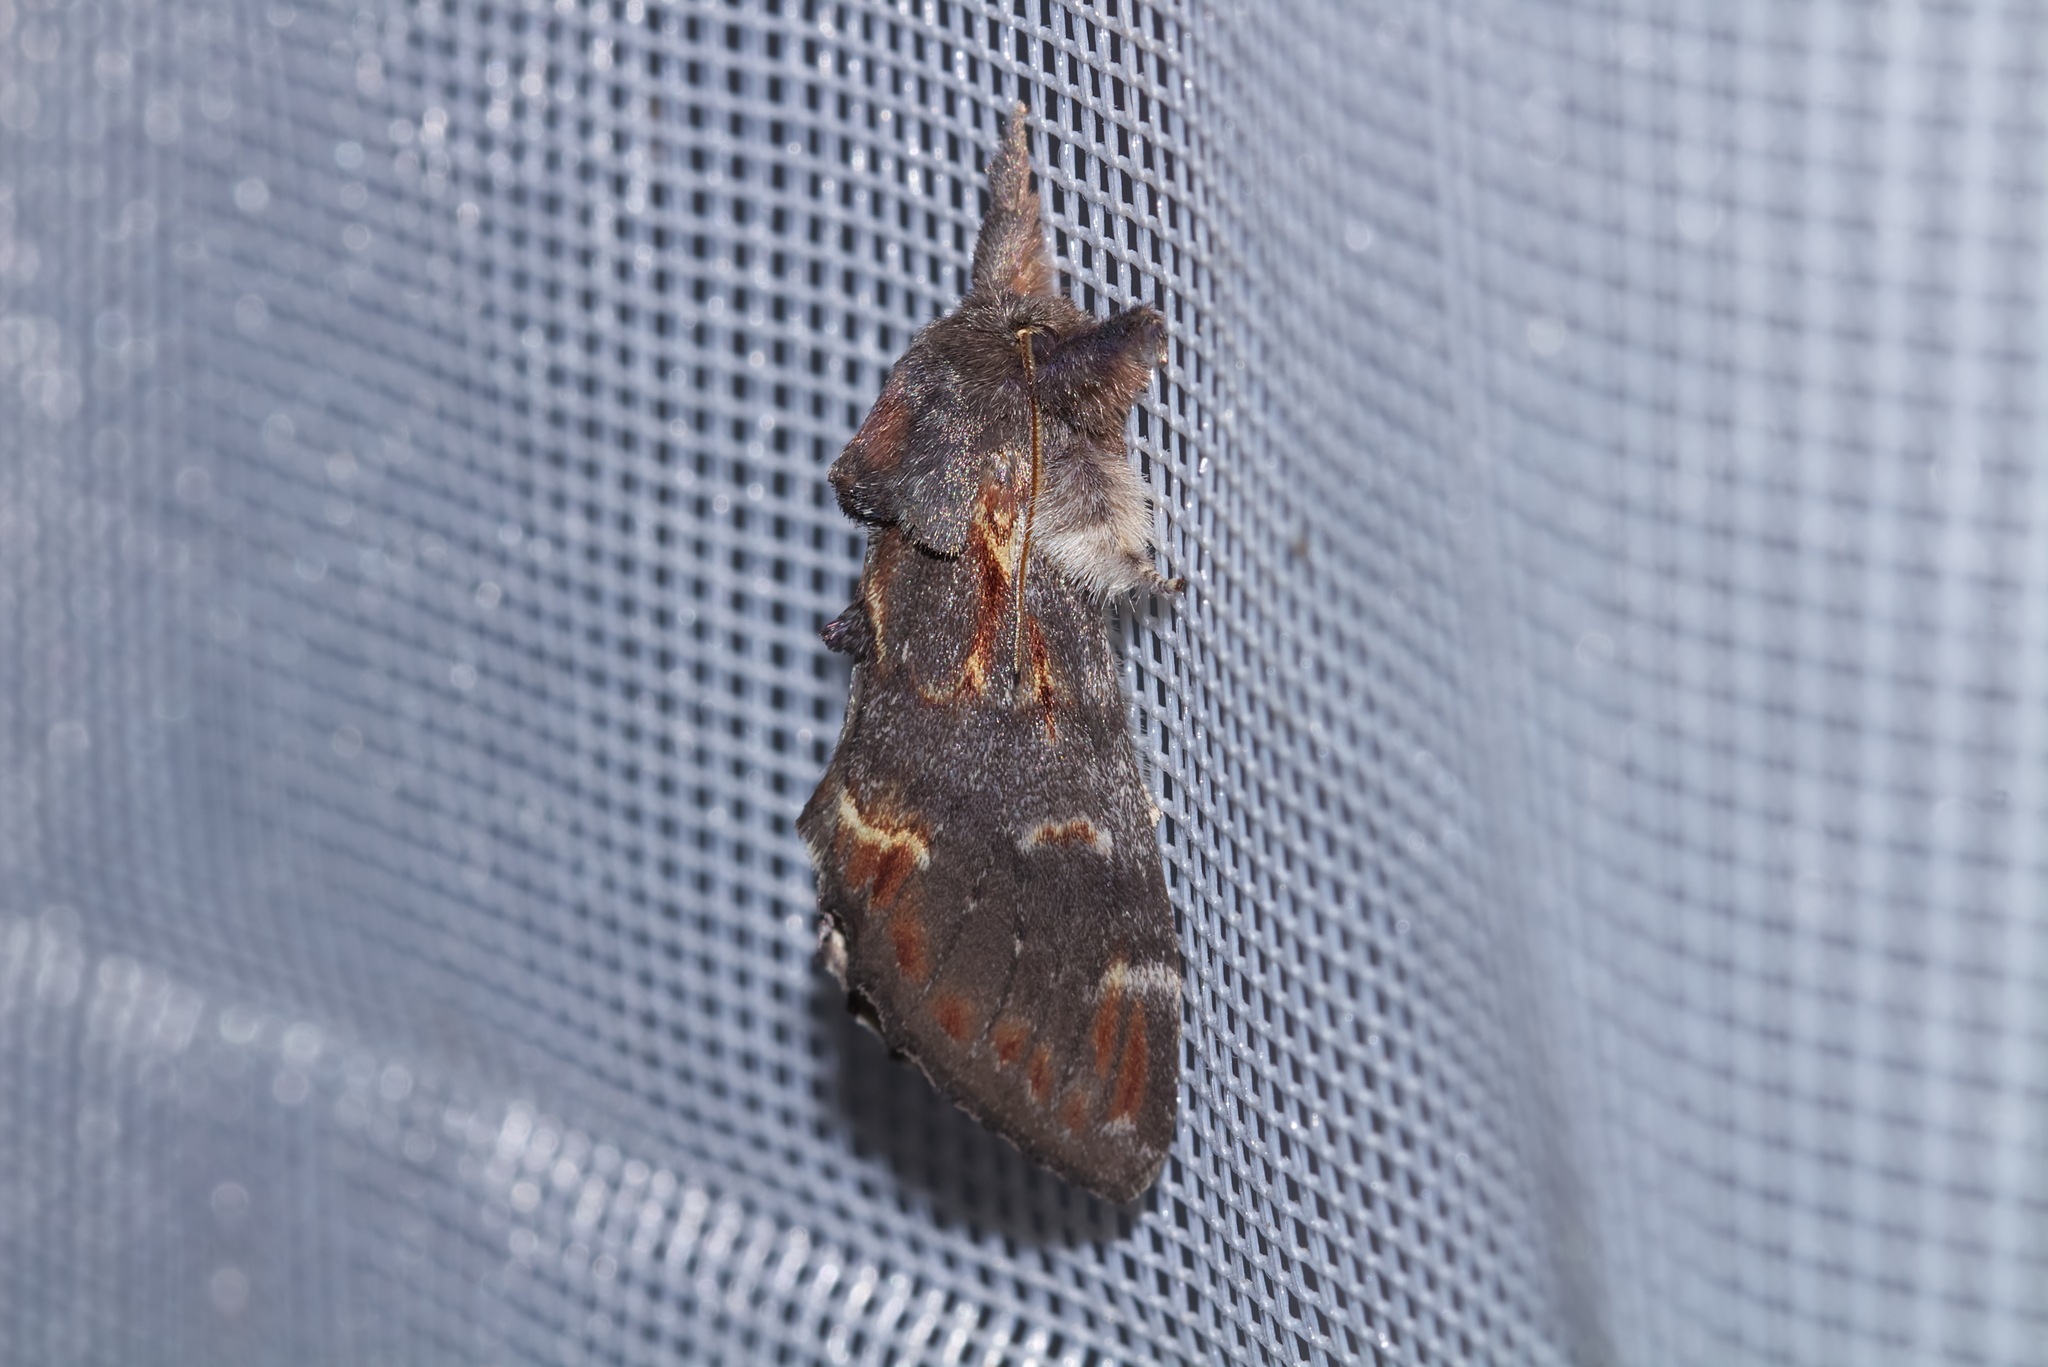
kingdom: Animalia
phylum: Arthropoda
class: Insecta
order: Lepidoptera
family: Notodontidae
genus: Notodonta
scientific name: Notodonta dromedarius
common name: Iron prominent
